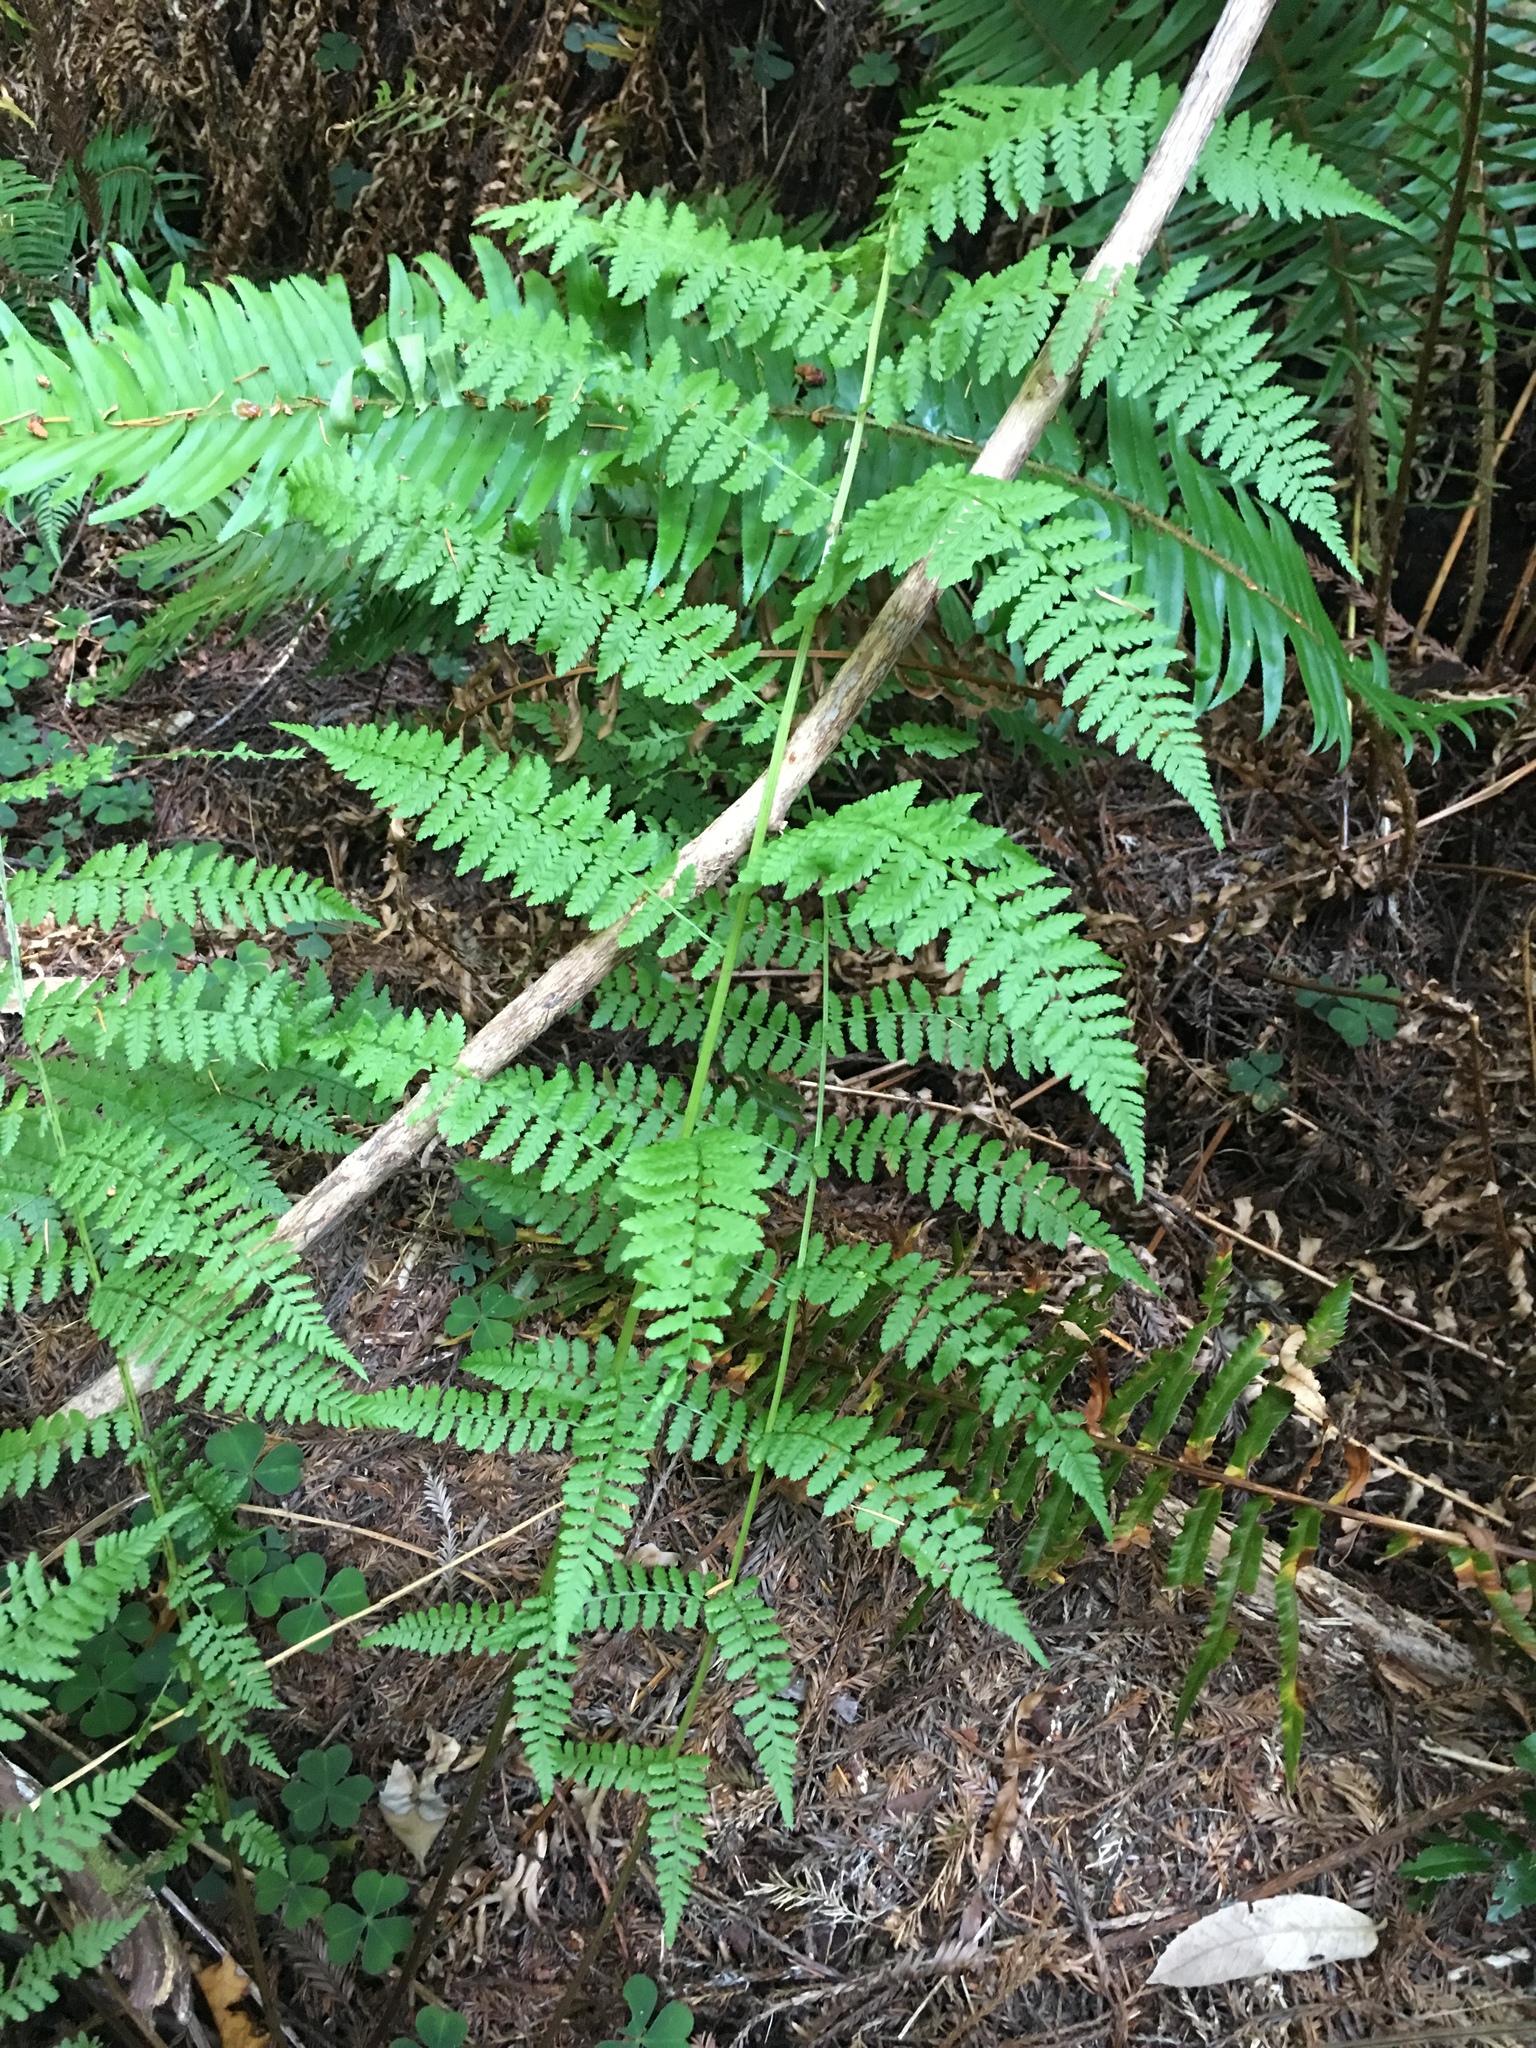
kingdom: Plantae
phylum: Tracheophyta
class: Polypodiopsida
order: Polypodiales
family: Athyriaceae
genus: Athyrium
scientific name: Athyrium filix-femina
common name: Lady fern
